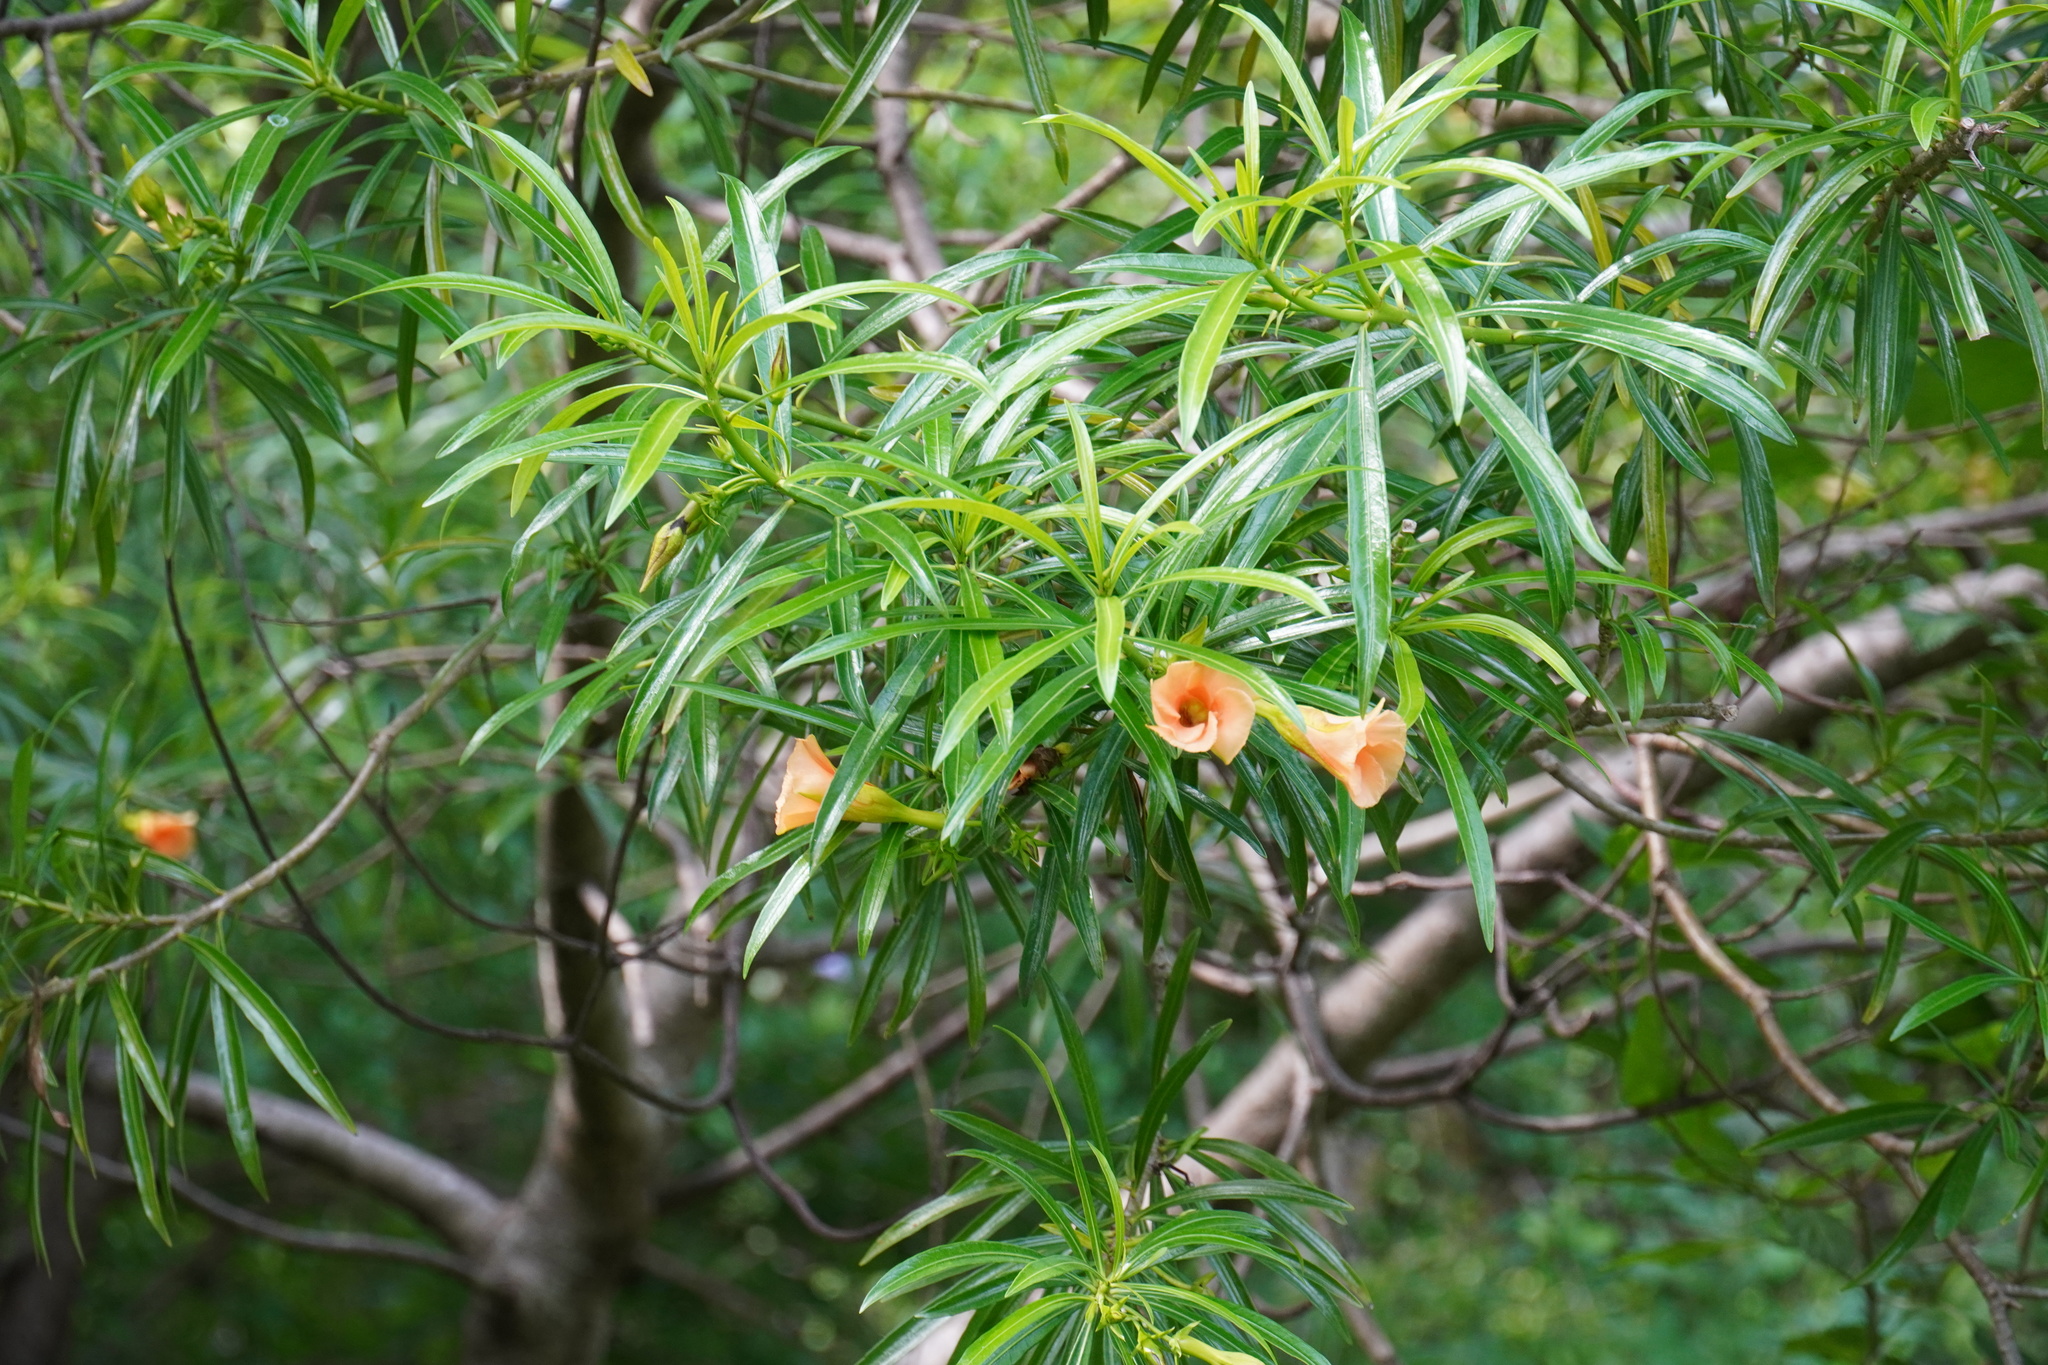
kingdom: Plantae
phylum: Tracheophyta
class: Magnoliopsida
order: Gentianales
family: Apocynaceae
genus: Cascabela
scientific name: Cascabela thevetia
